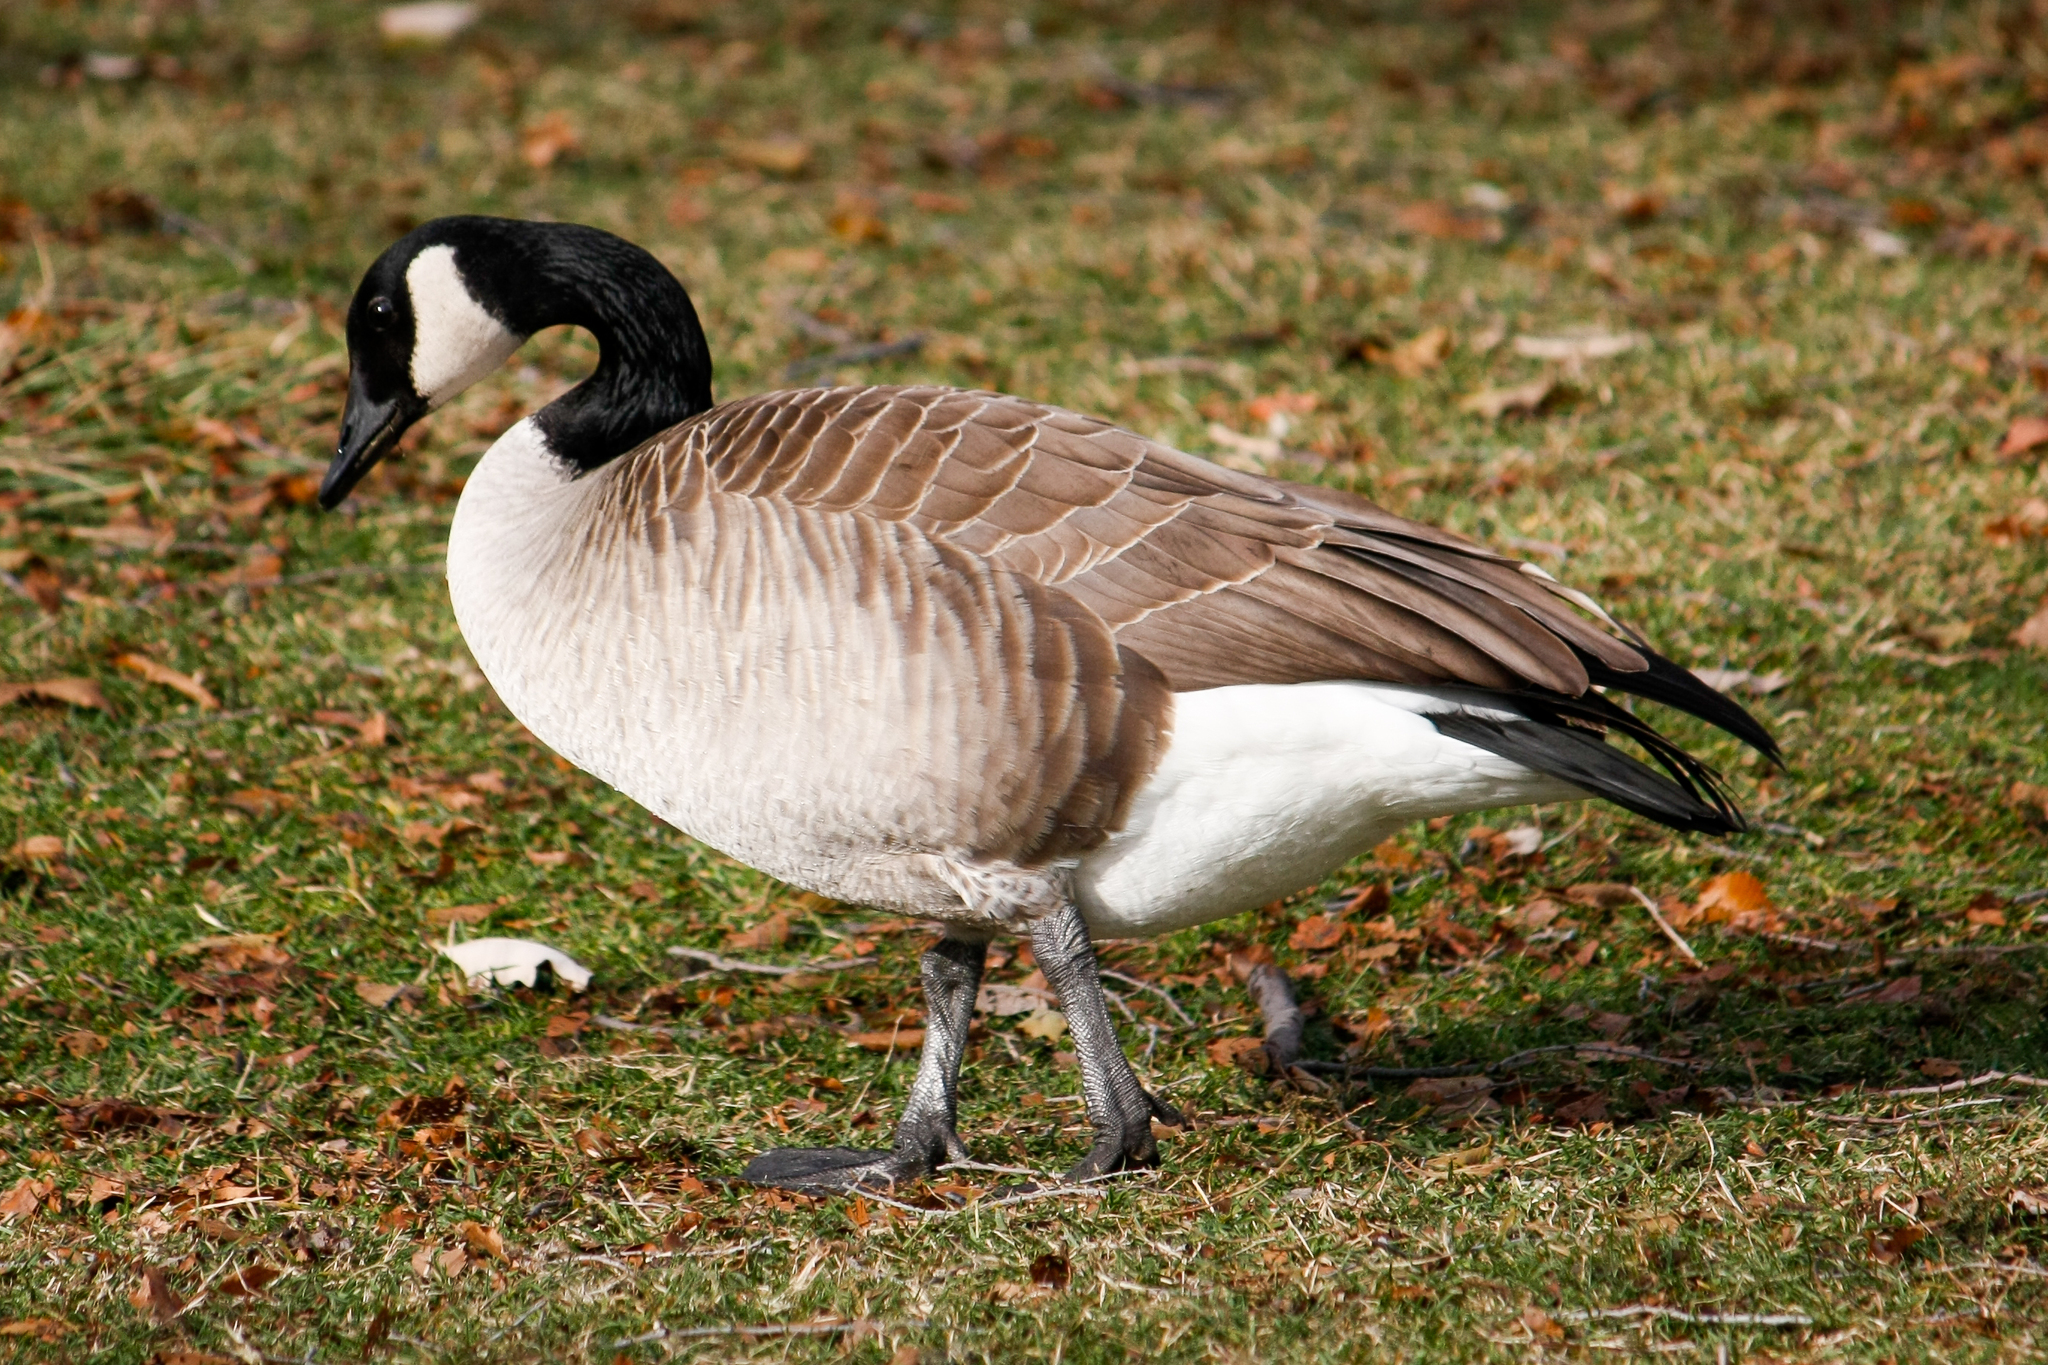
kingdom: Animalia
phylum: Chordata
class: Aves
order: Anseriformes
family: Anatidae
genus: Branta
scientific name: Branta canadensis
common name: Canada goose
